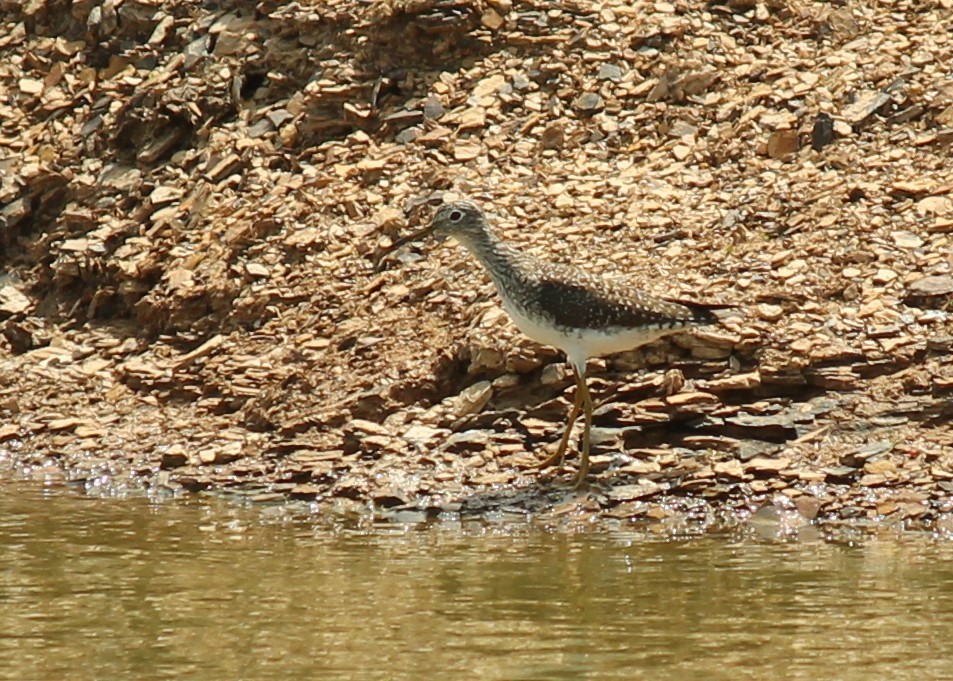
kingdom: Animalia
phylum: Chordata
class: Aves
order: Charadriiformes
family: Scolopacidae
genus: Tringa
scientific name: Tringa solitaria
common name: Solitary sandpiper
